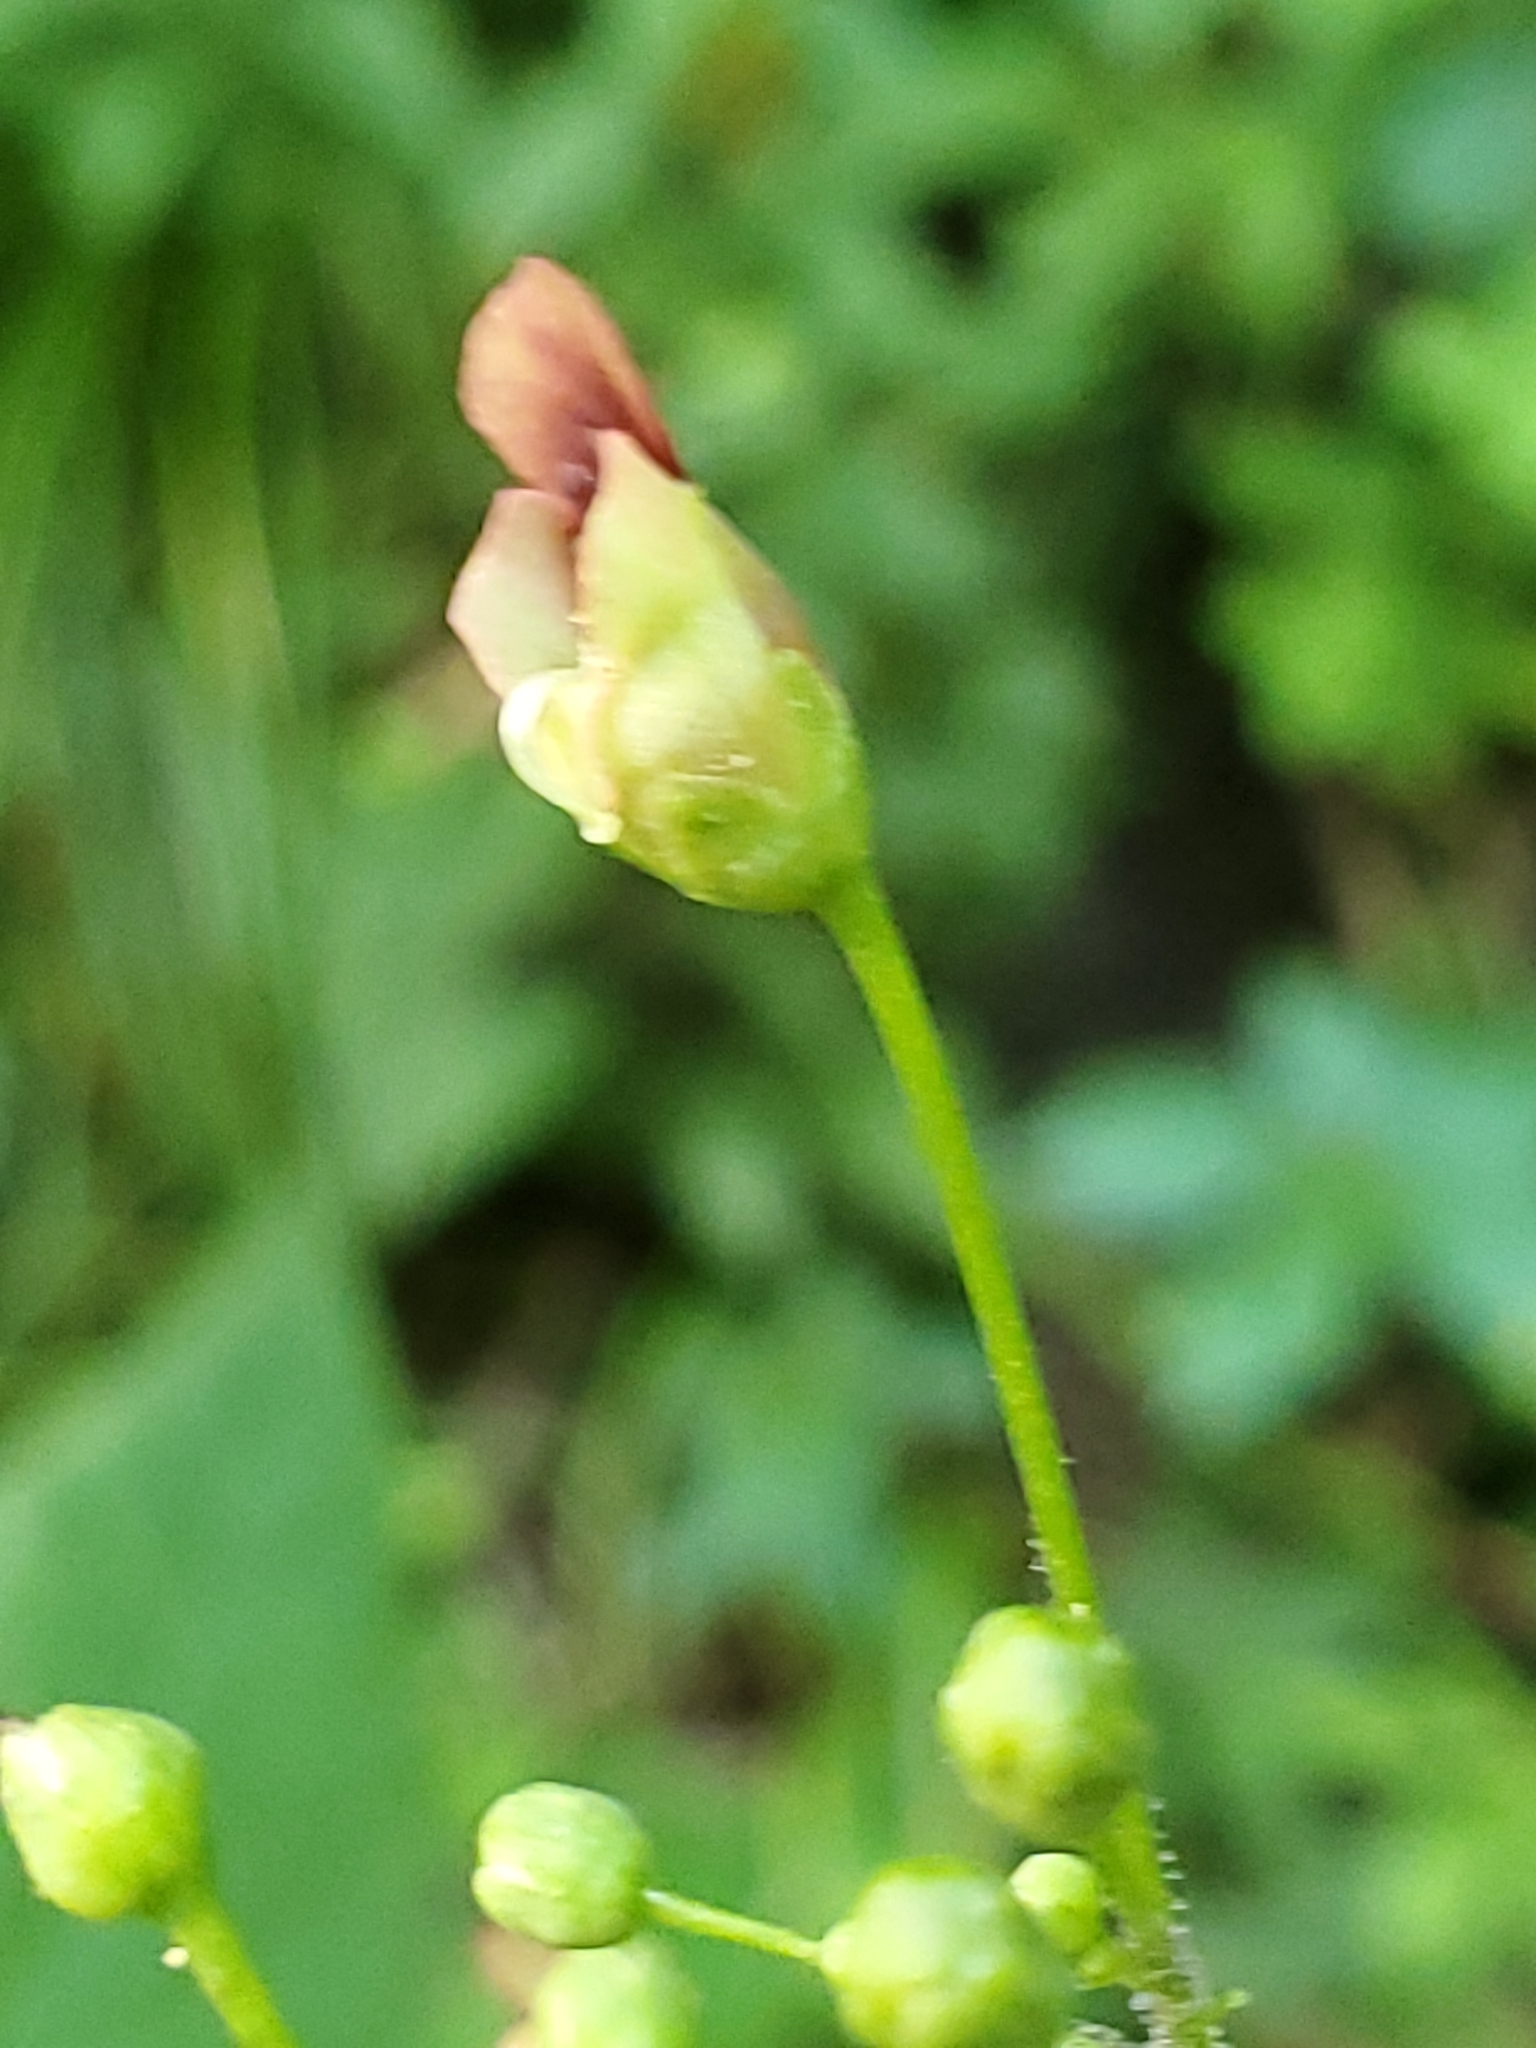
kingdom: Plantae
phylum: Tracheophyta
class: Magnoliopsida
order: Lamiales
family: Scrophulariaceae
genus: Scrophularia
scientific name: Scrophularia marilandica
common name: Eastern figwort
